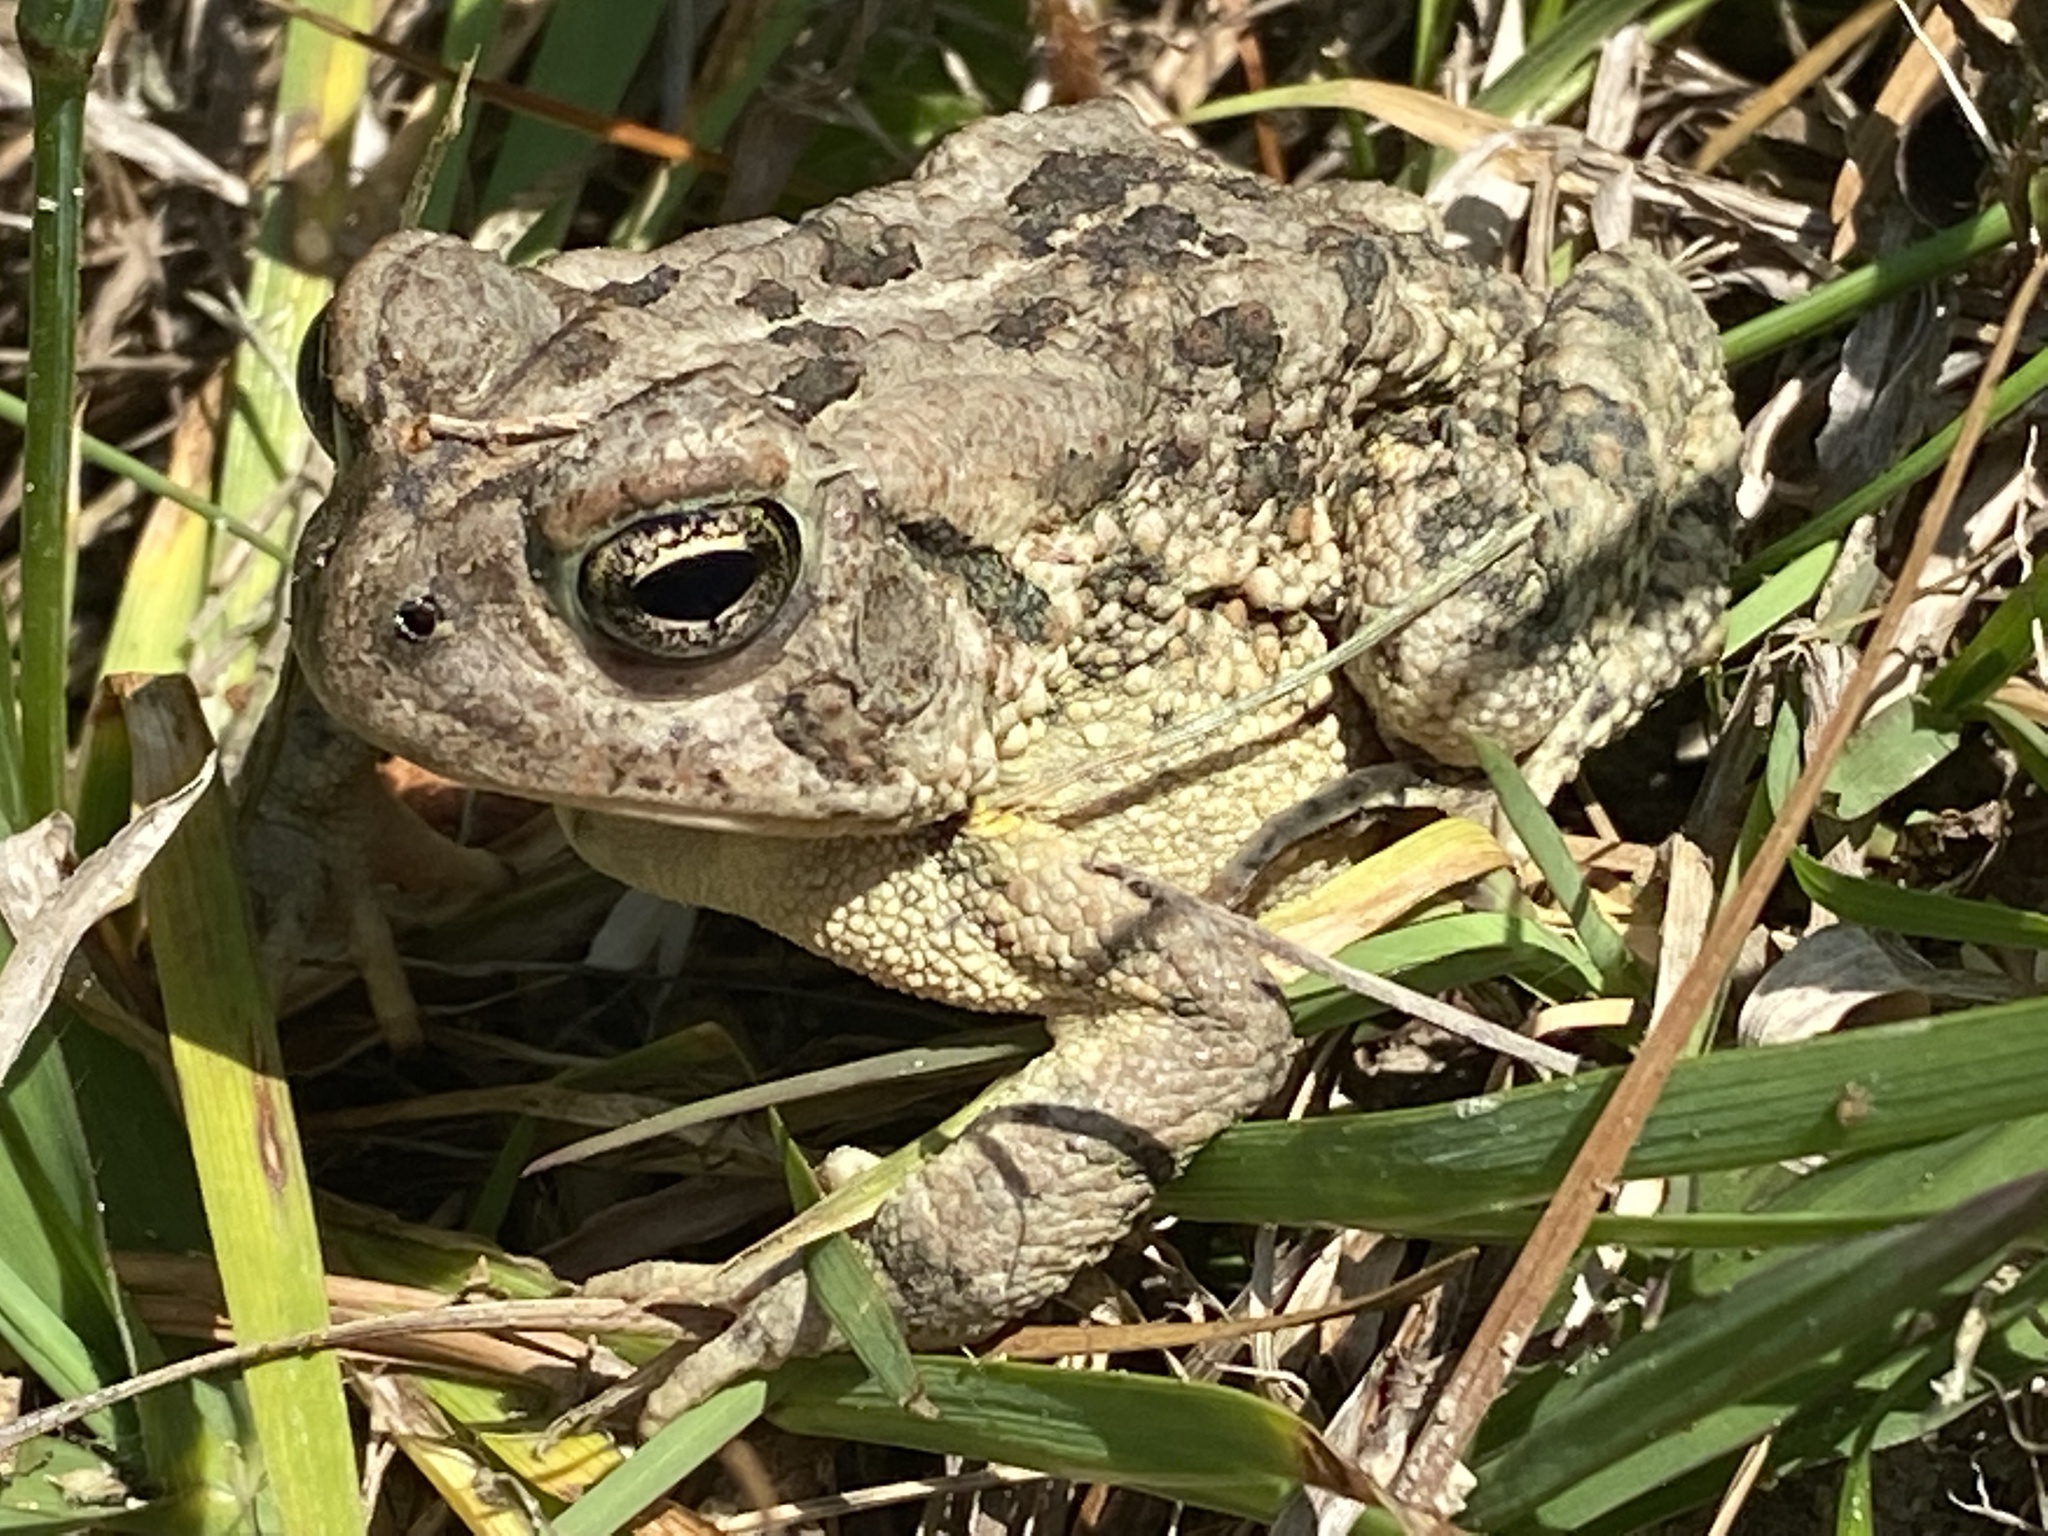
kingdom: Animalia
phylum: Chordata
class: Amphibia
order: Anura
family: Bufonidae
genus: Anaxyrus
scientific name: Anaxyrus fowleri
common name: Fowler's toad
